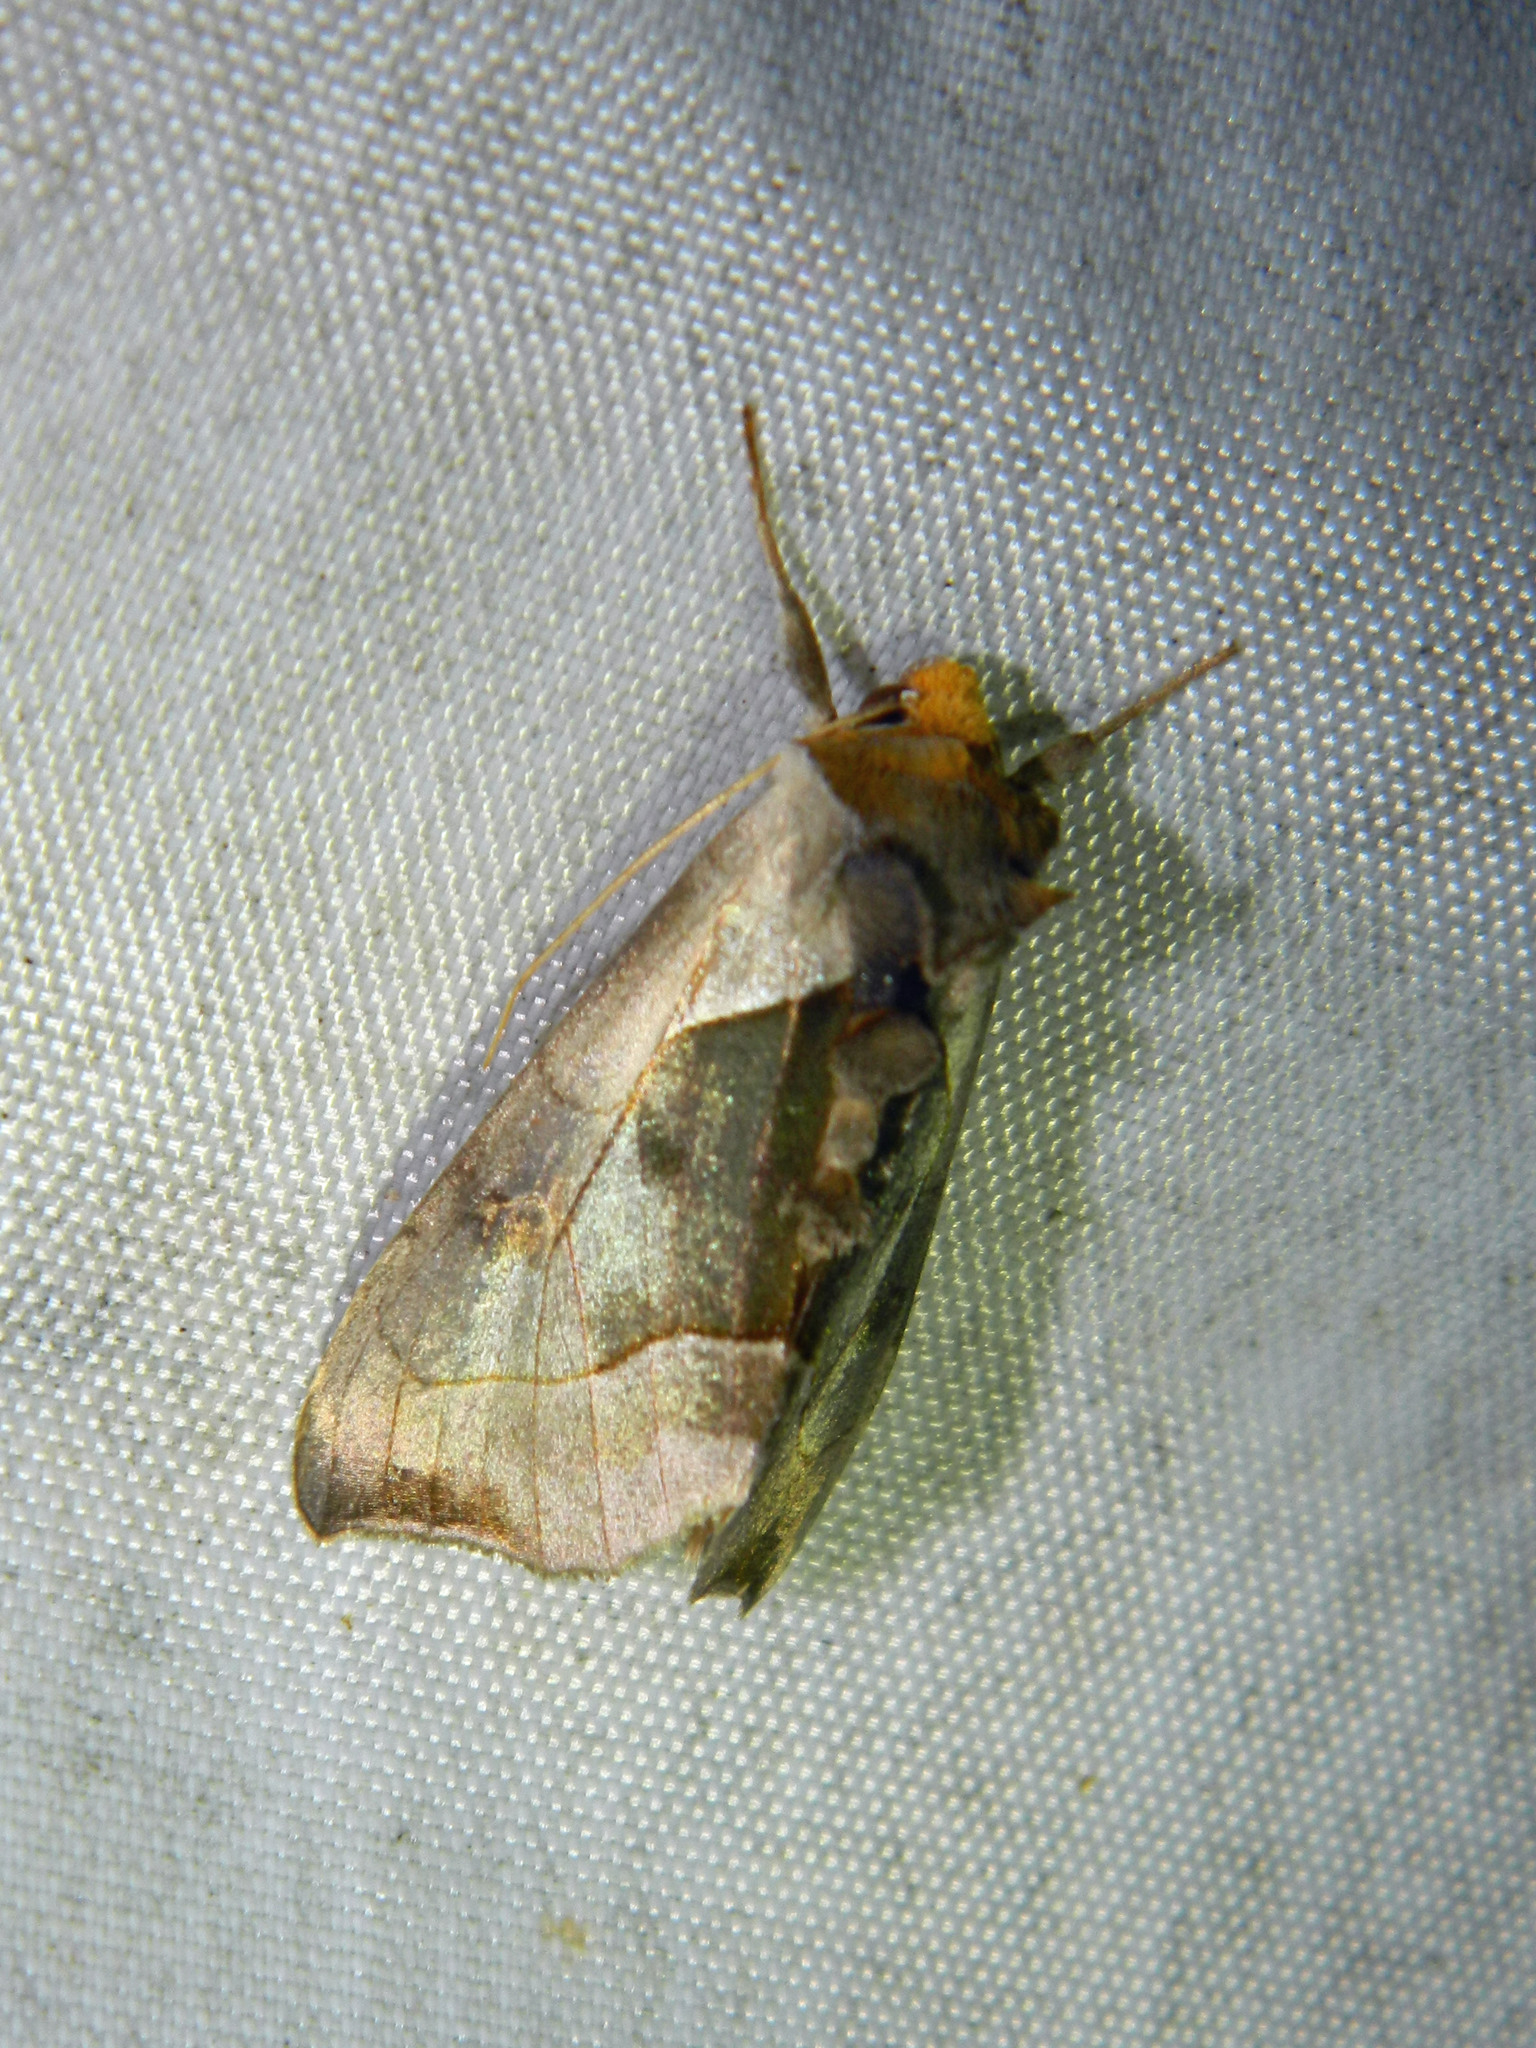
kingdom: Animalia
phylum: Arthropoda
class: Insecta
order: Lepidoptera
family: Noctuidae
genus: Diachrysia
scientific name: Diachrysia balluca
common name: Green-patched looper moth
